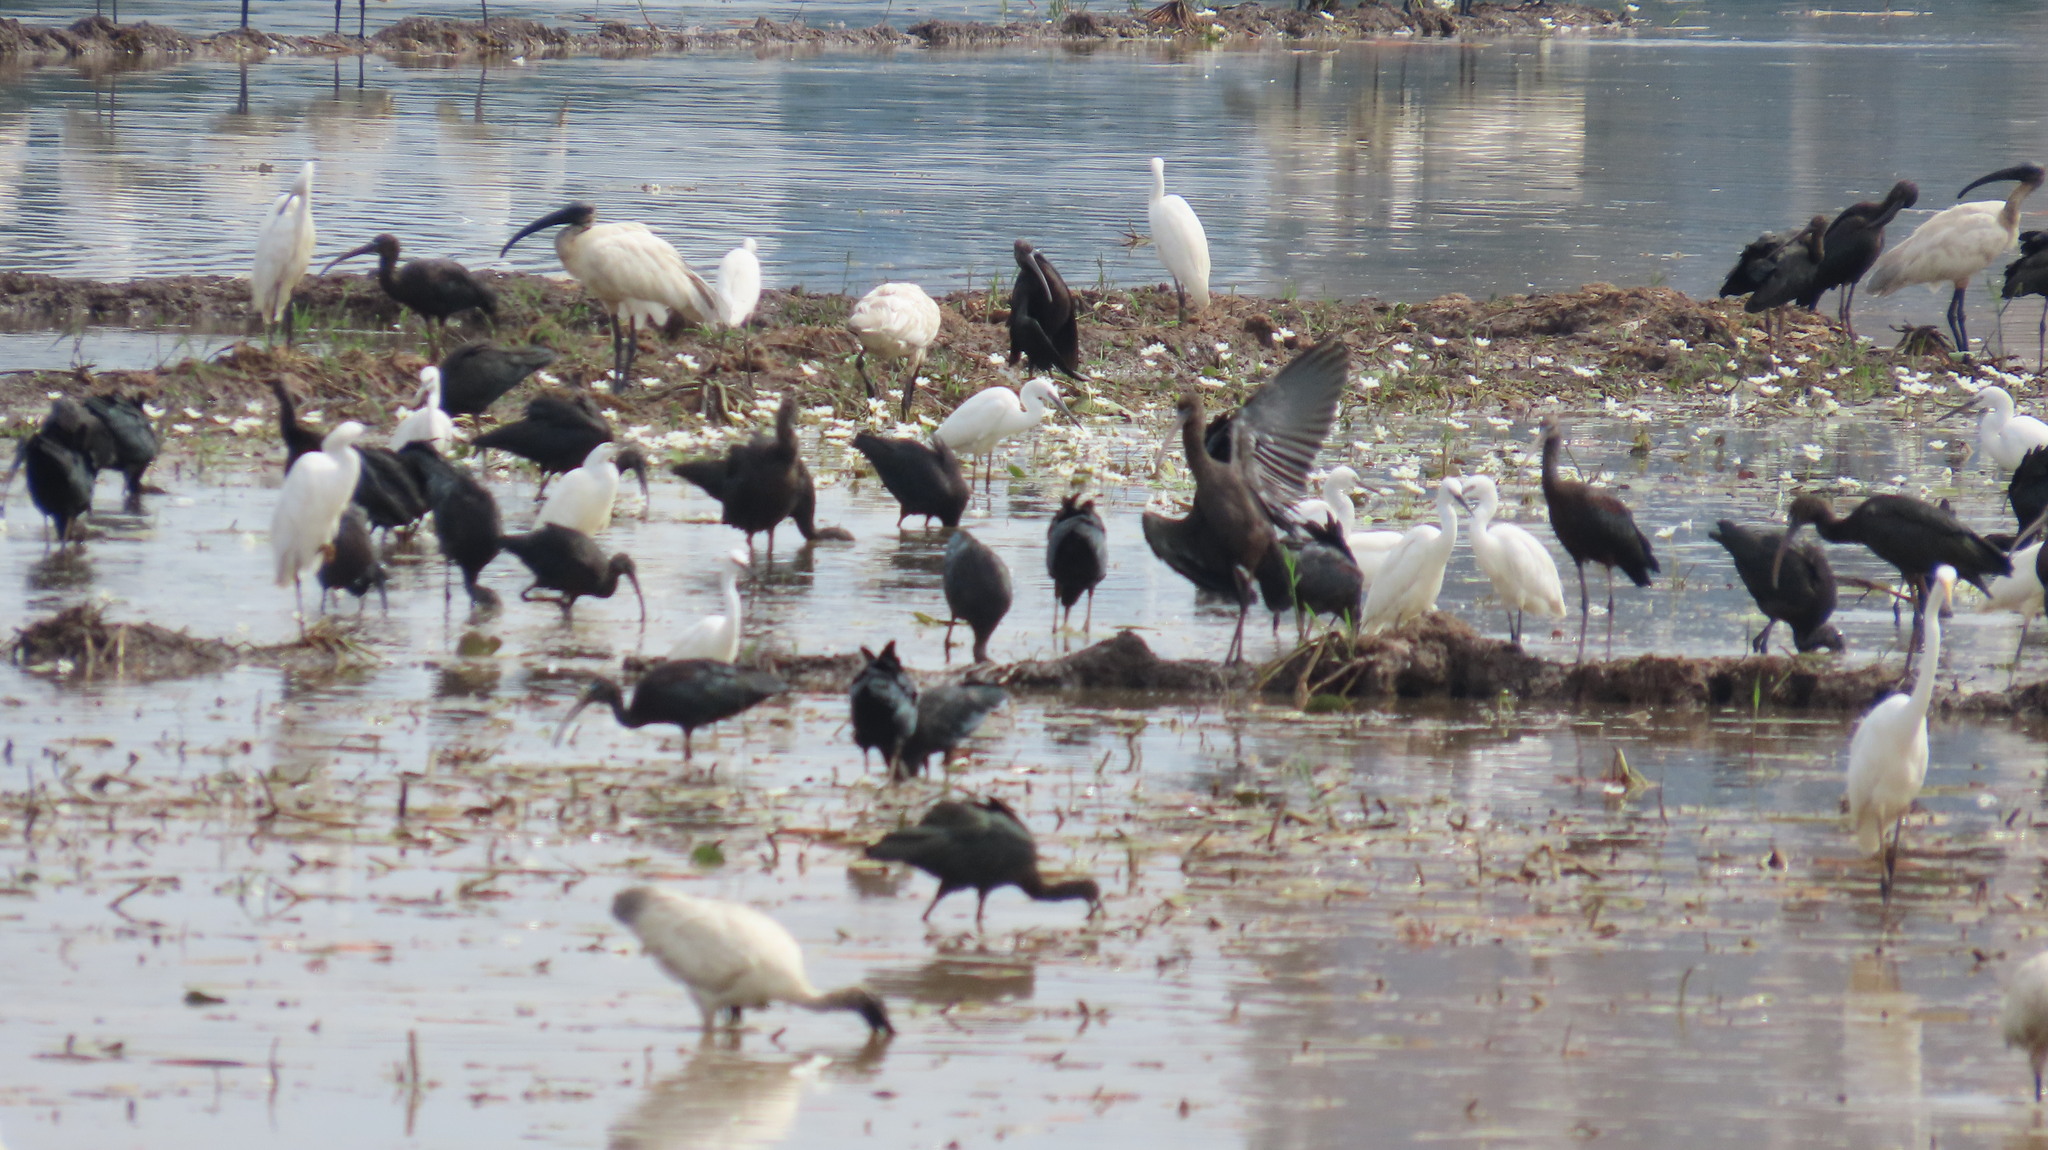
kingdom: Animalia
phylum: Chordata
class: Aves
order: Pelecaniformes
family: Threskiornithidae
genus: Plegadis
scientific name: Plegadis falcinellus
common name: Glossy ibis
